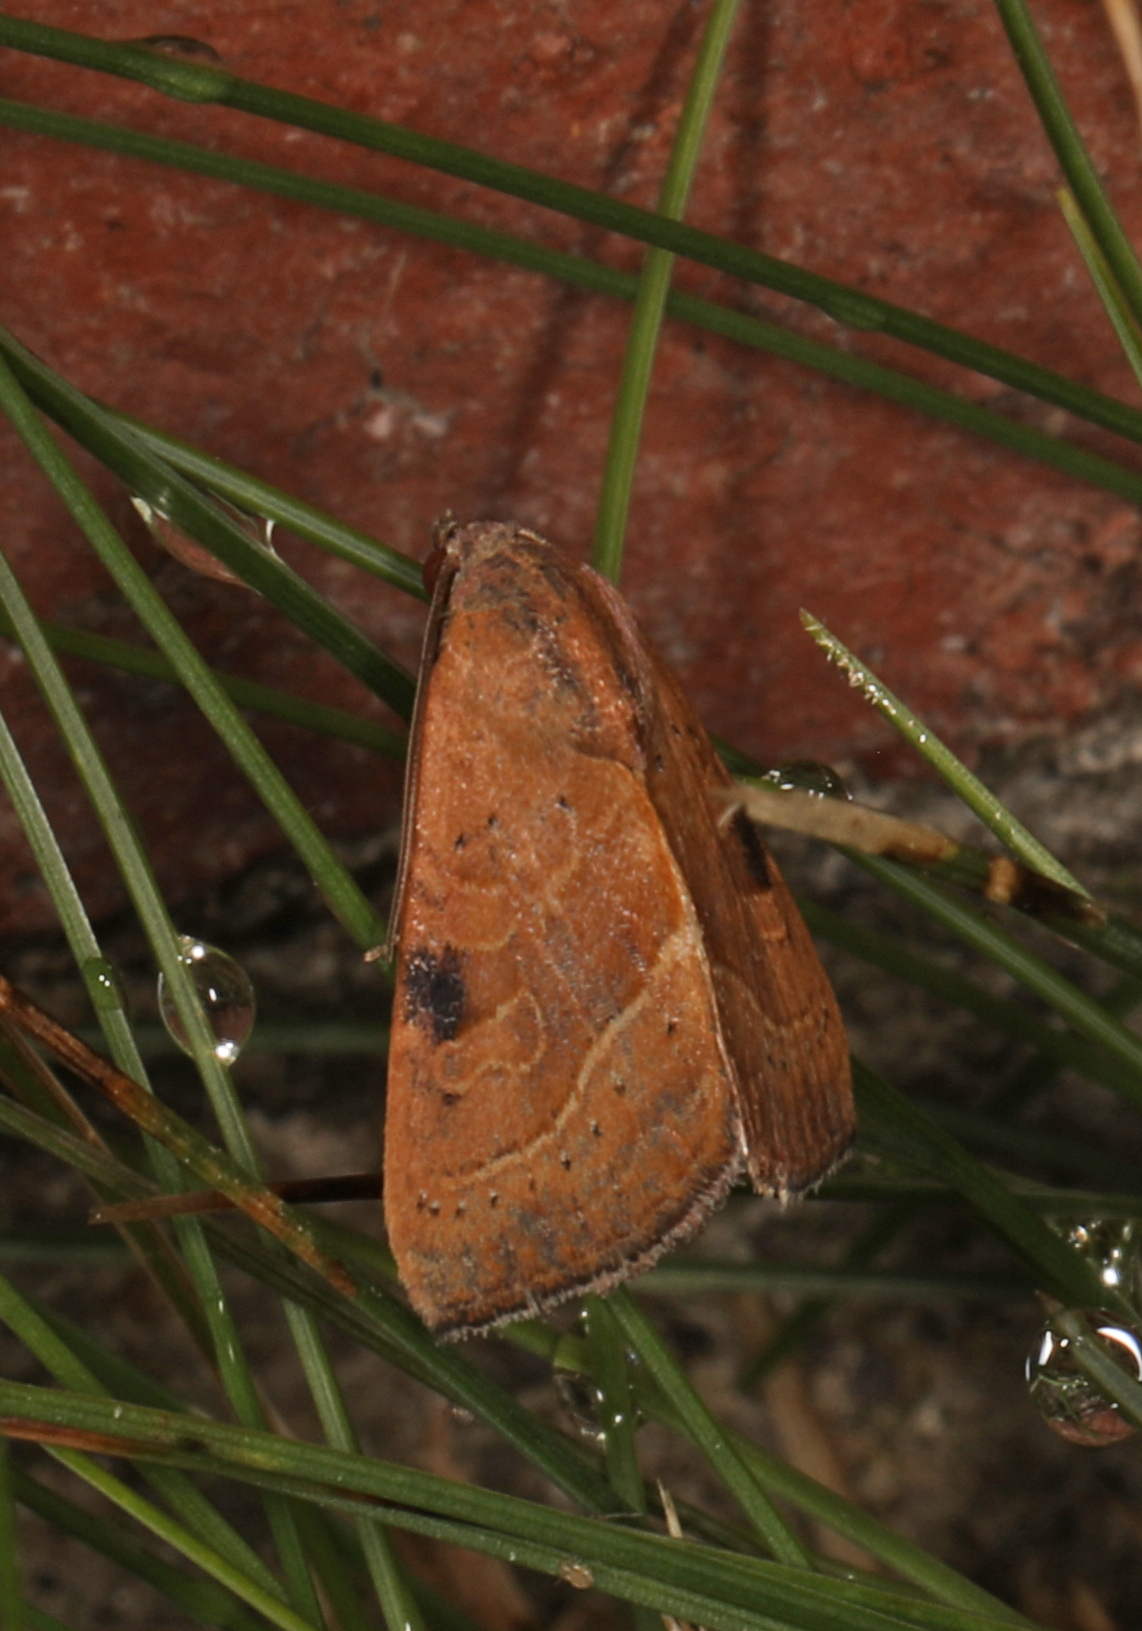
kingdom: Animalia
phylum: Arthropoda
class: Insecta
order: Lepidoptera
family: Noctuidae
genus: Galgula
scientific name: Galgula partita
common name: Wedgeling
